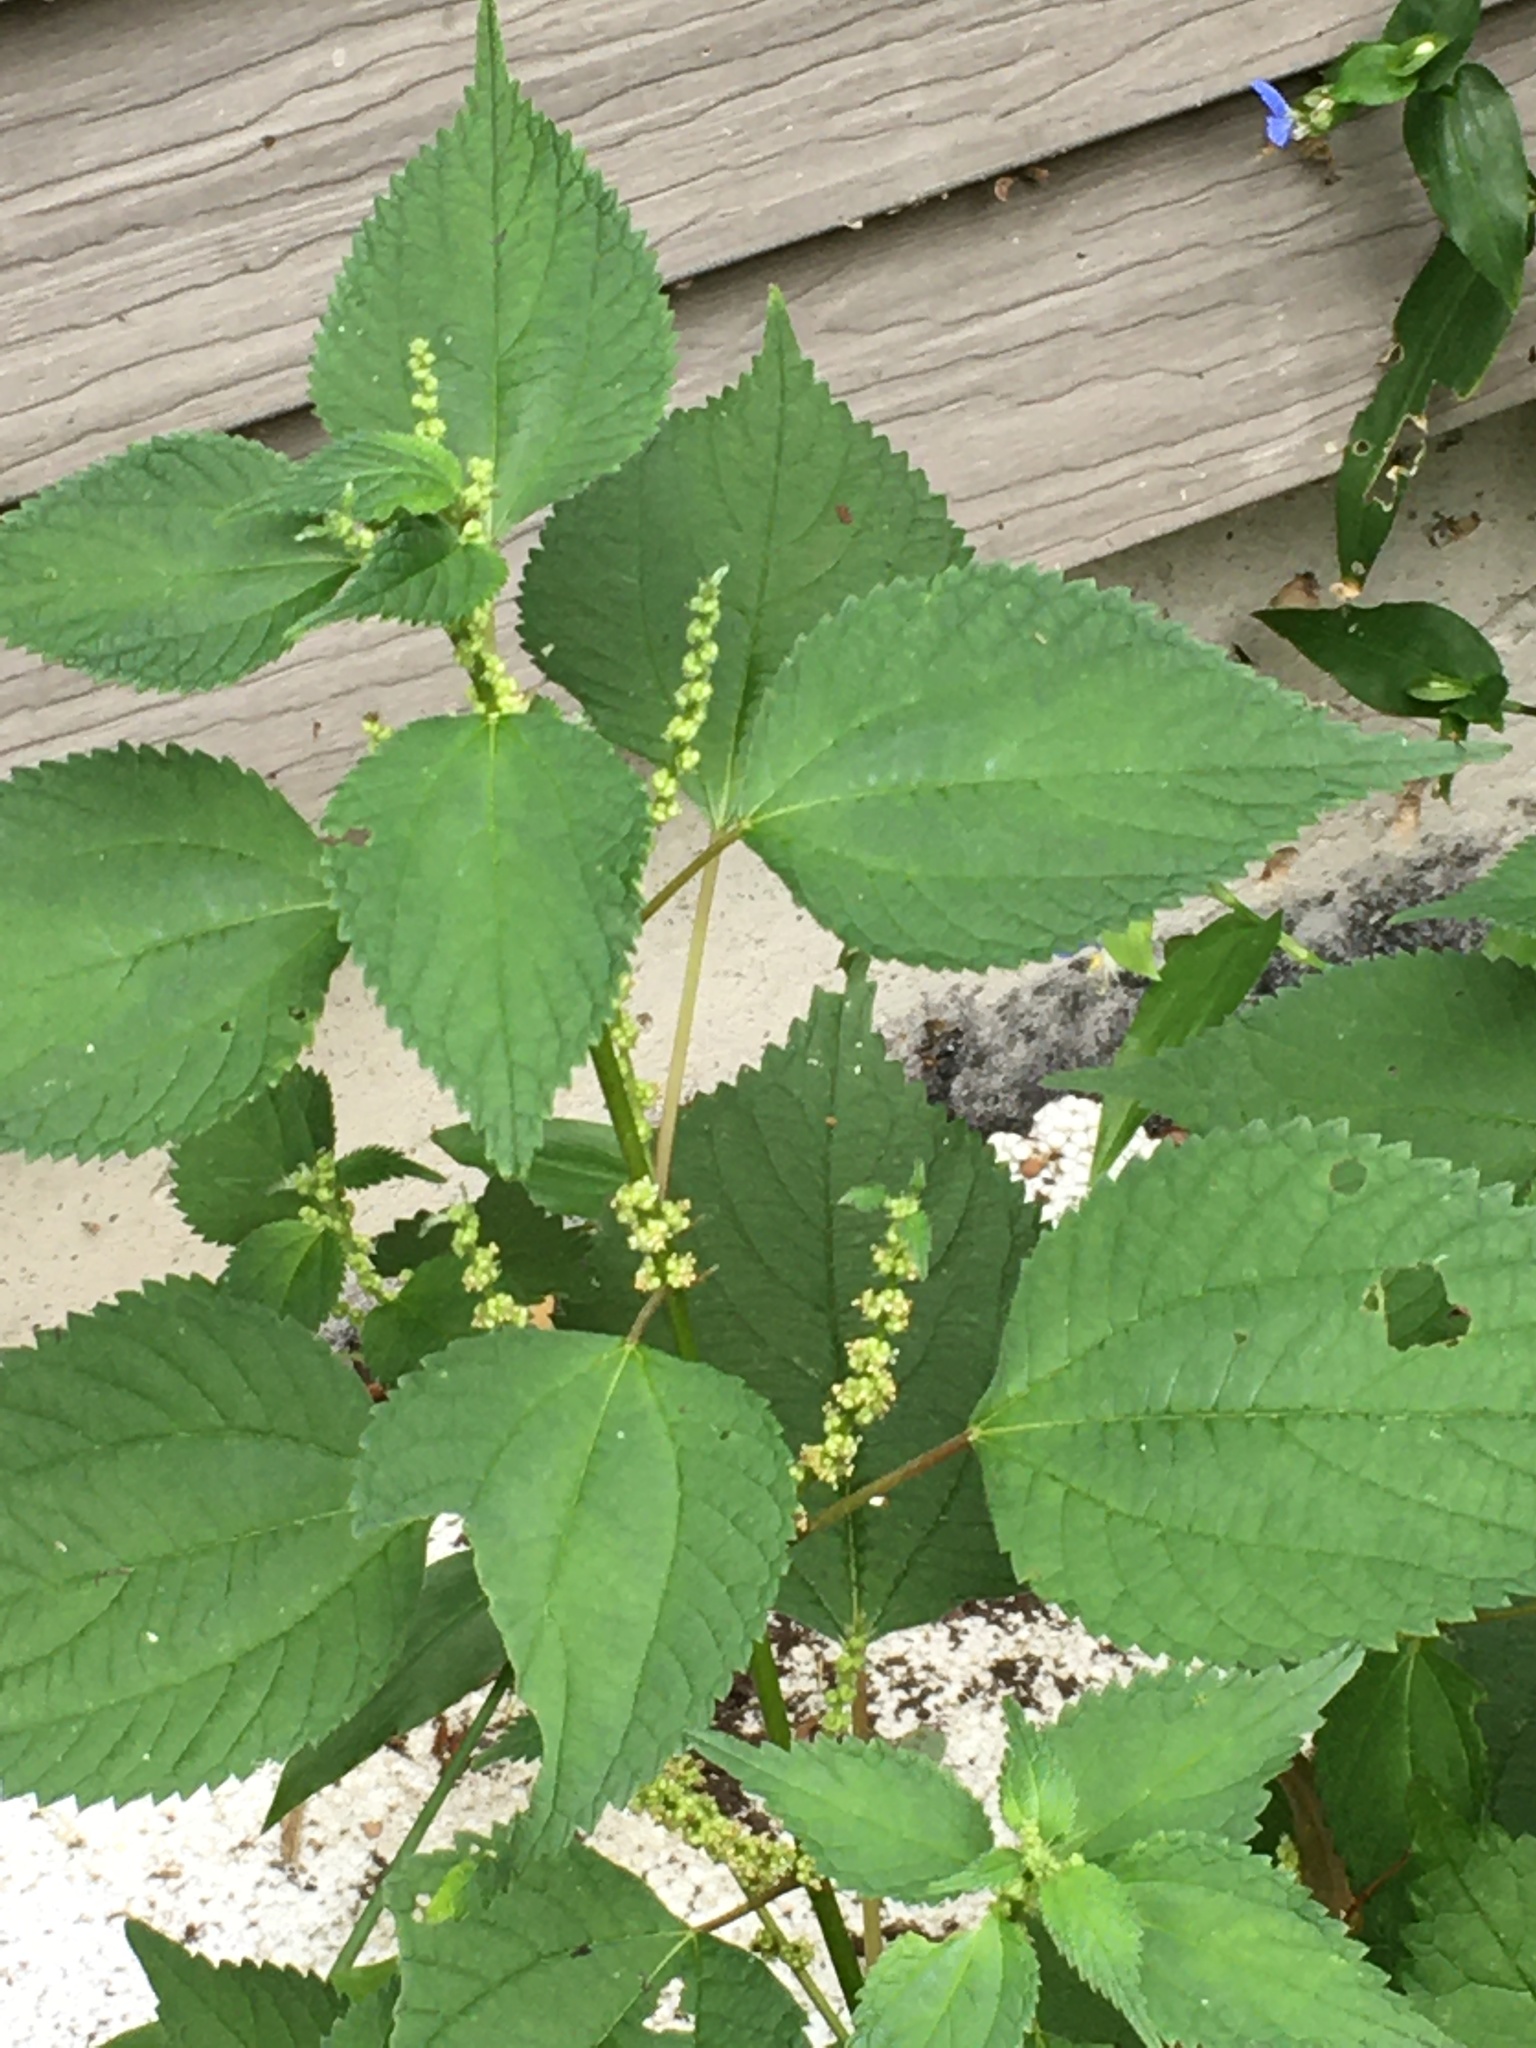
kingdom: Plantae
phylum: Tracheophyta
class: Magnoliopsida
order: Rosales
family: Urticaceae
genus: Boehmeria
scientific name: Boehmeria cylindrica
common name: Bog-hemp
